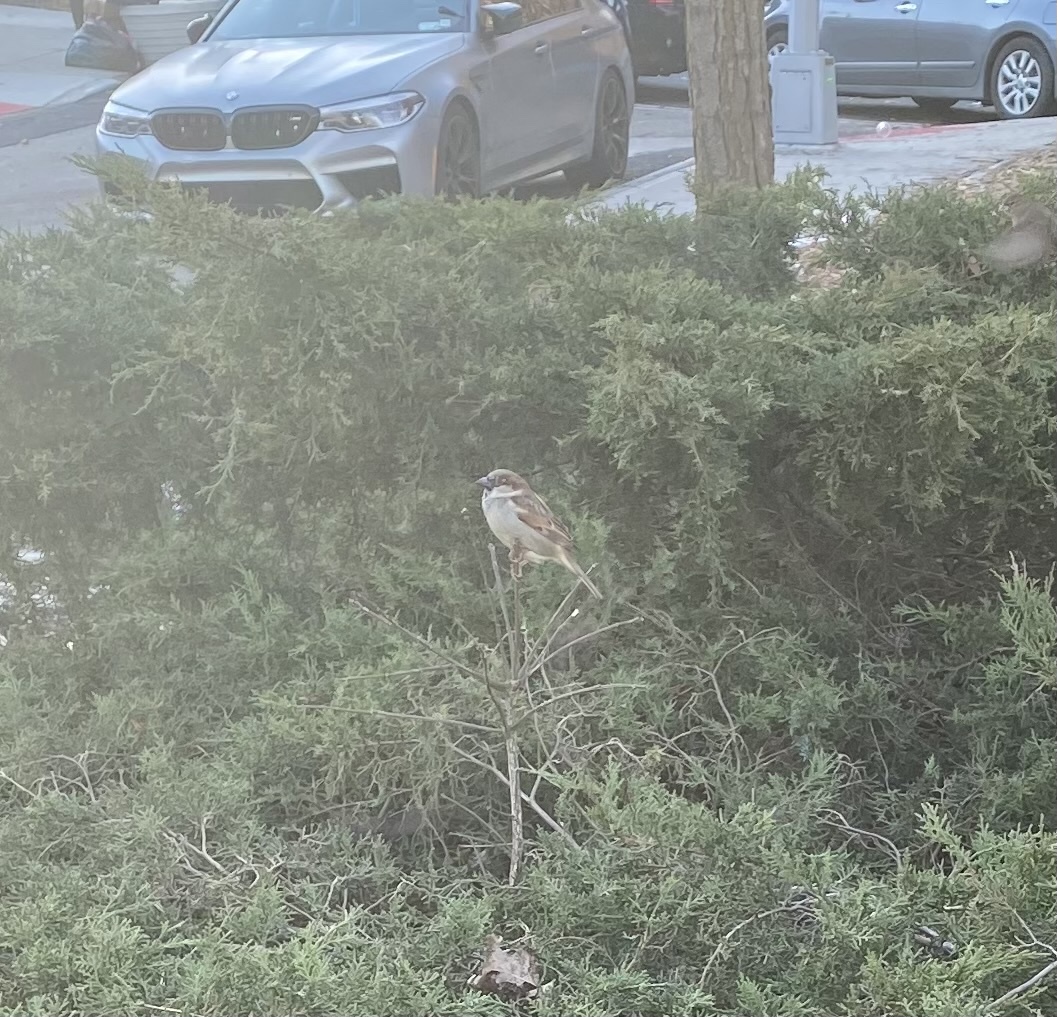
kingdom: Animalia
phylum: Chordata
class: Aves
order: Passeriformes
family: Passeridae
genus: Passer
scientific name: Passer domesticus
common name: House sparrow
